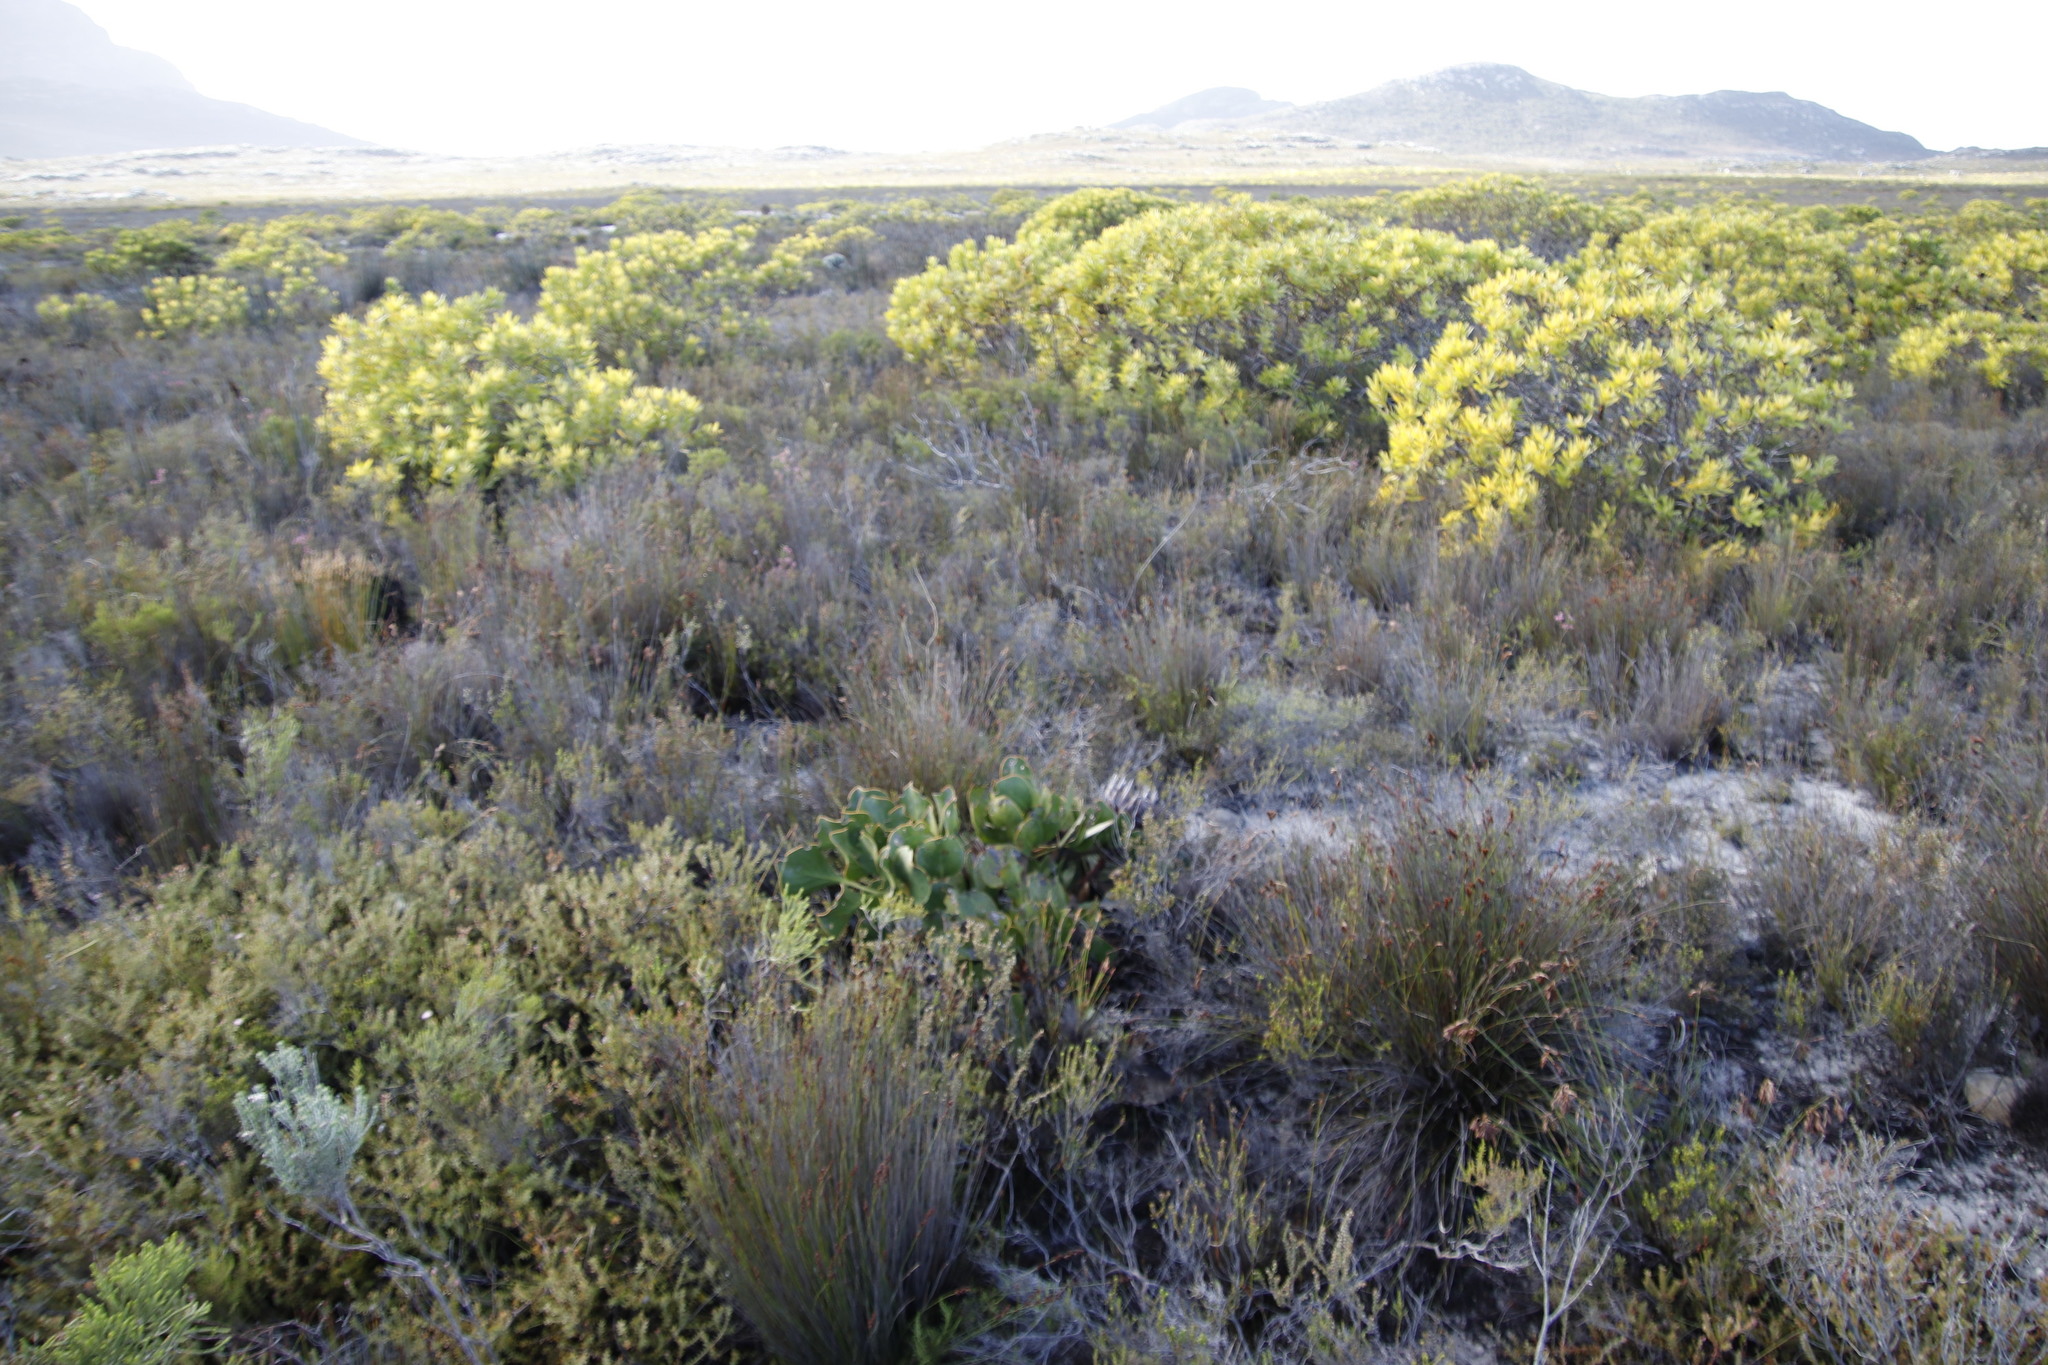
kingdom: Plantae
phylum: Tracheophyta
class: Magnoliopsida
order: Proteales
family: Proteaceae
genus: Protea
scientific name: Protea cynaroides
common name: King protea
